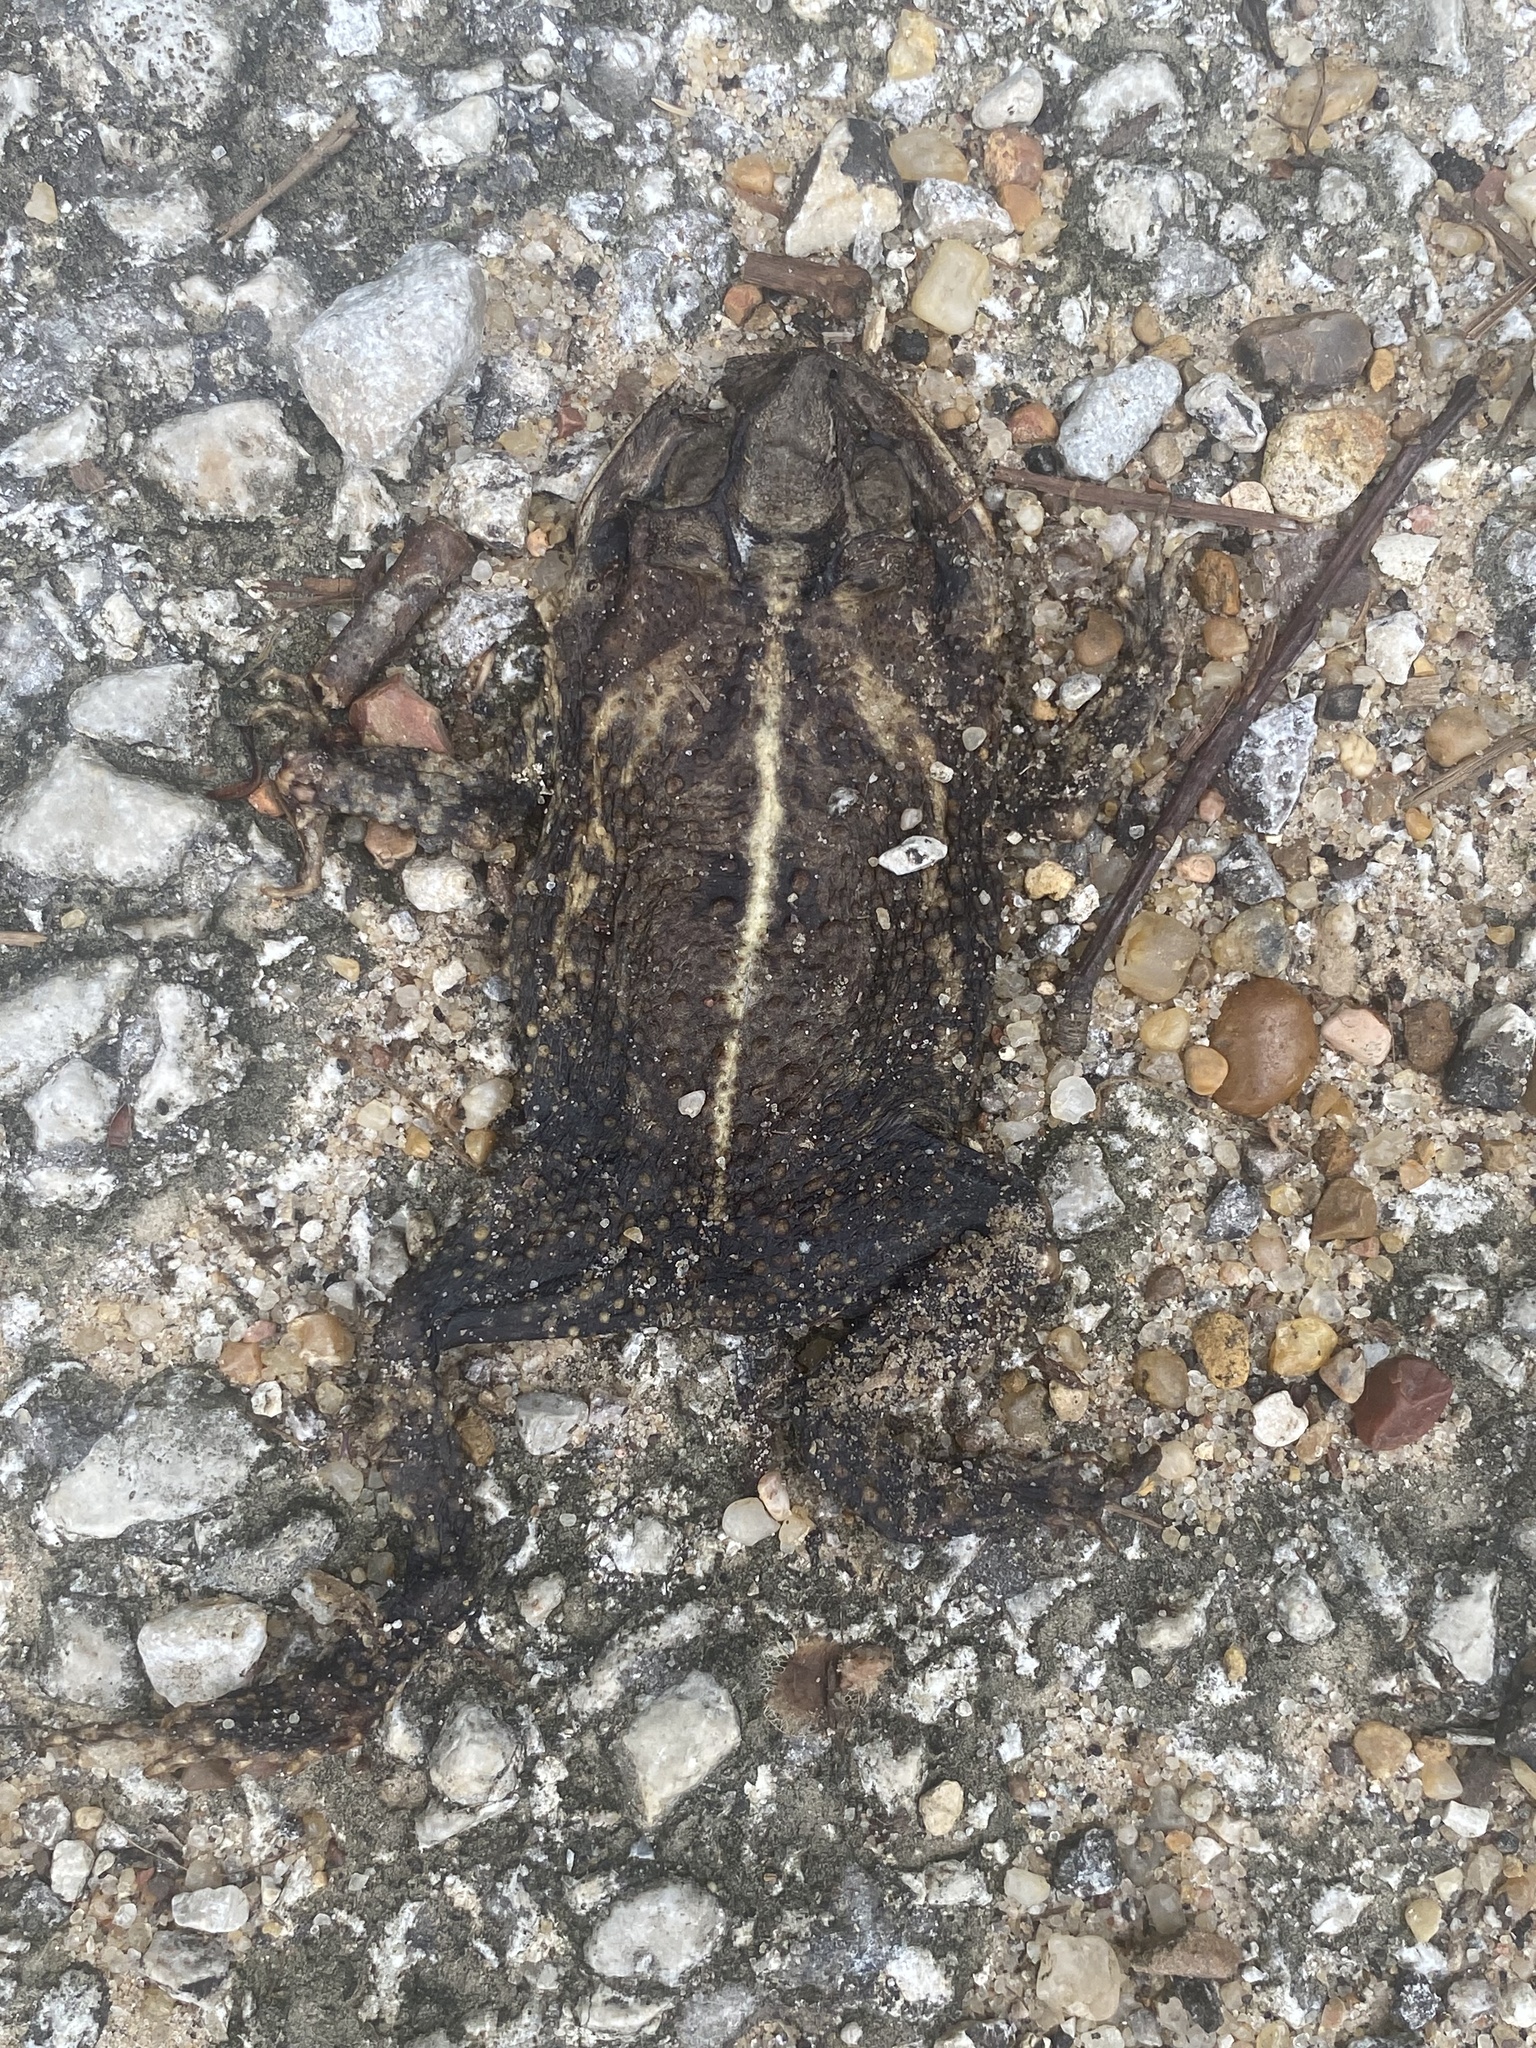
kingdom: Animalia
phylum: Chordata
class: Amphibia
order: Anura
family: Bufonidae
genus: Incilius
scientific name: Incilius nebulifer
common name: Gulf coast toad
